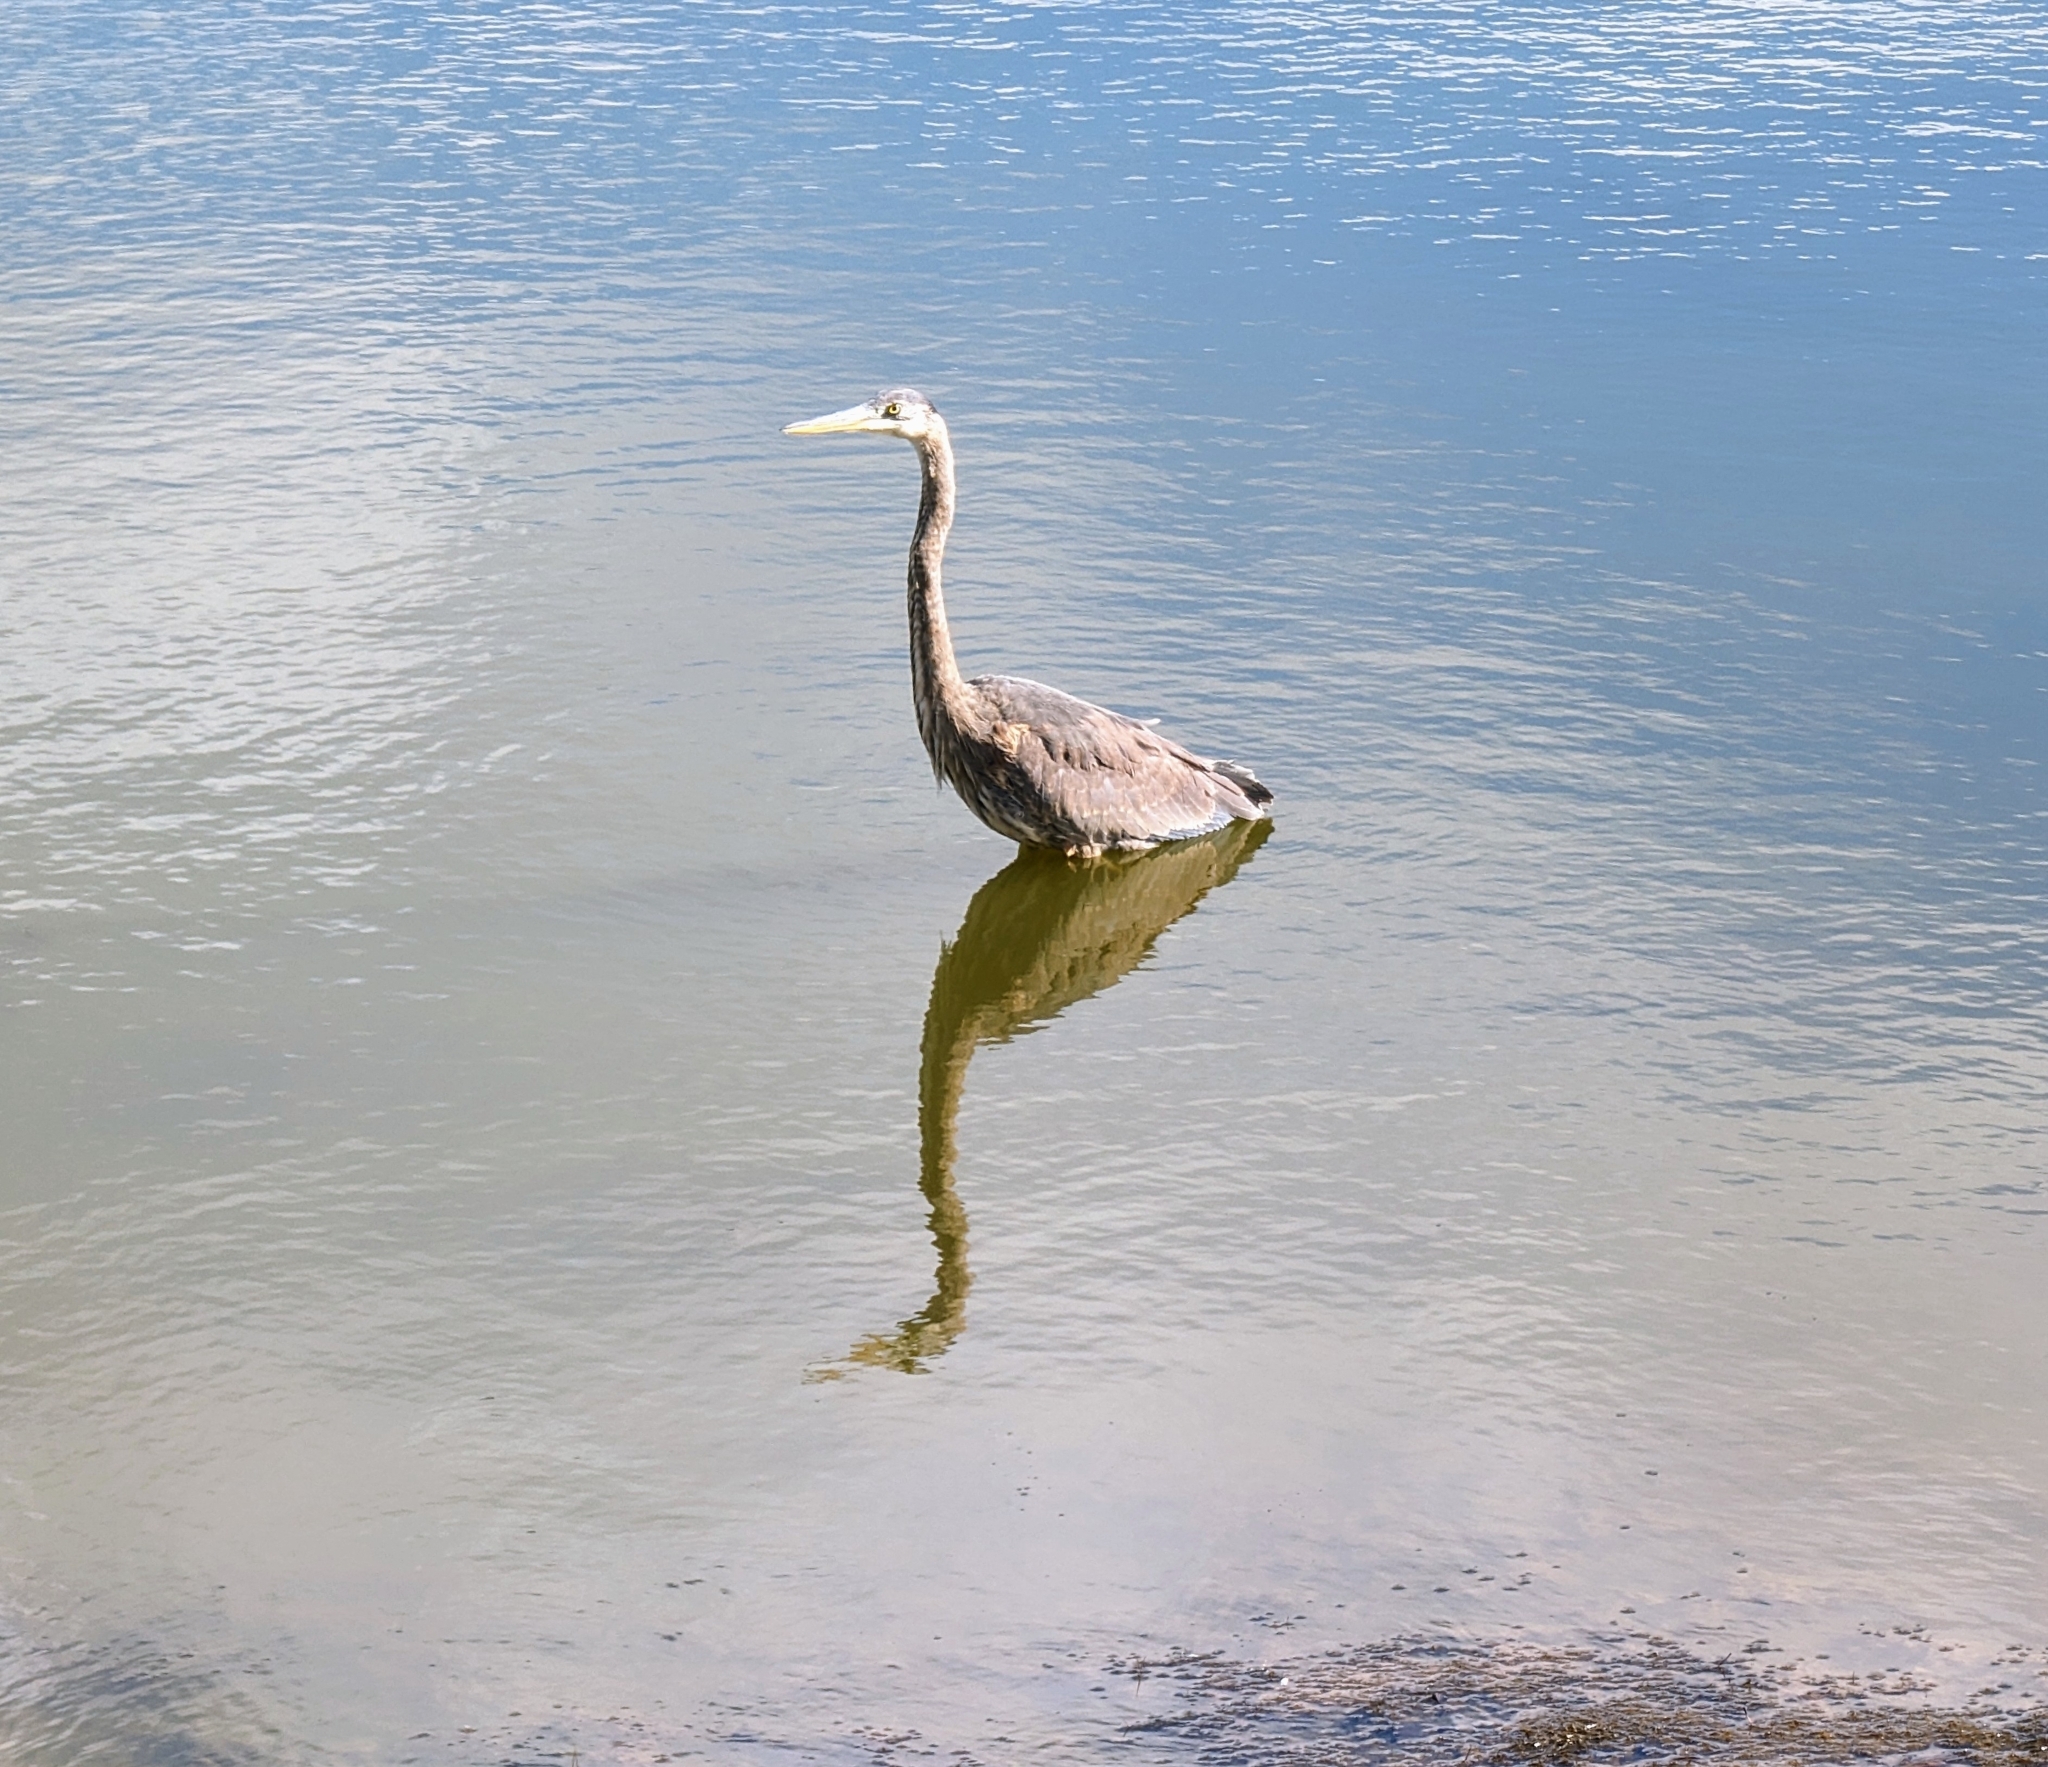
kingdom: Animalia
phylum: Chordata
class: Aves
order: Pelecaniformes
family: Ardeidae
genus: Ardea
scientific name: Ardea herodias
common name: Great blue heron
